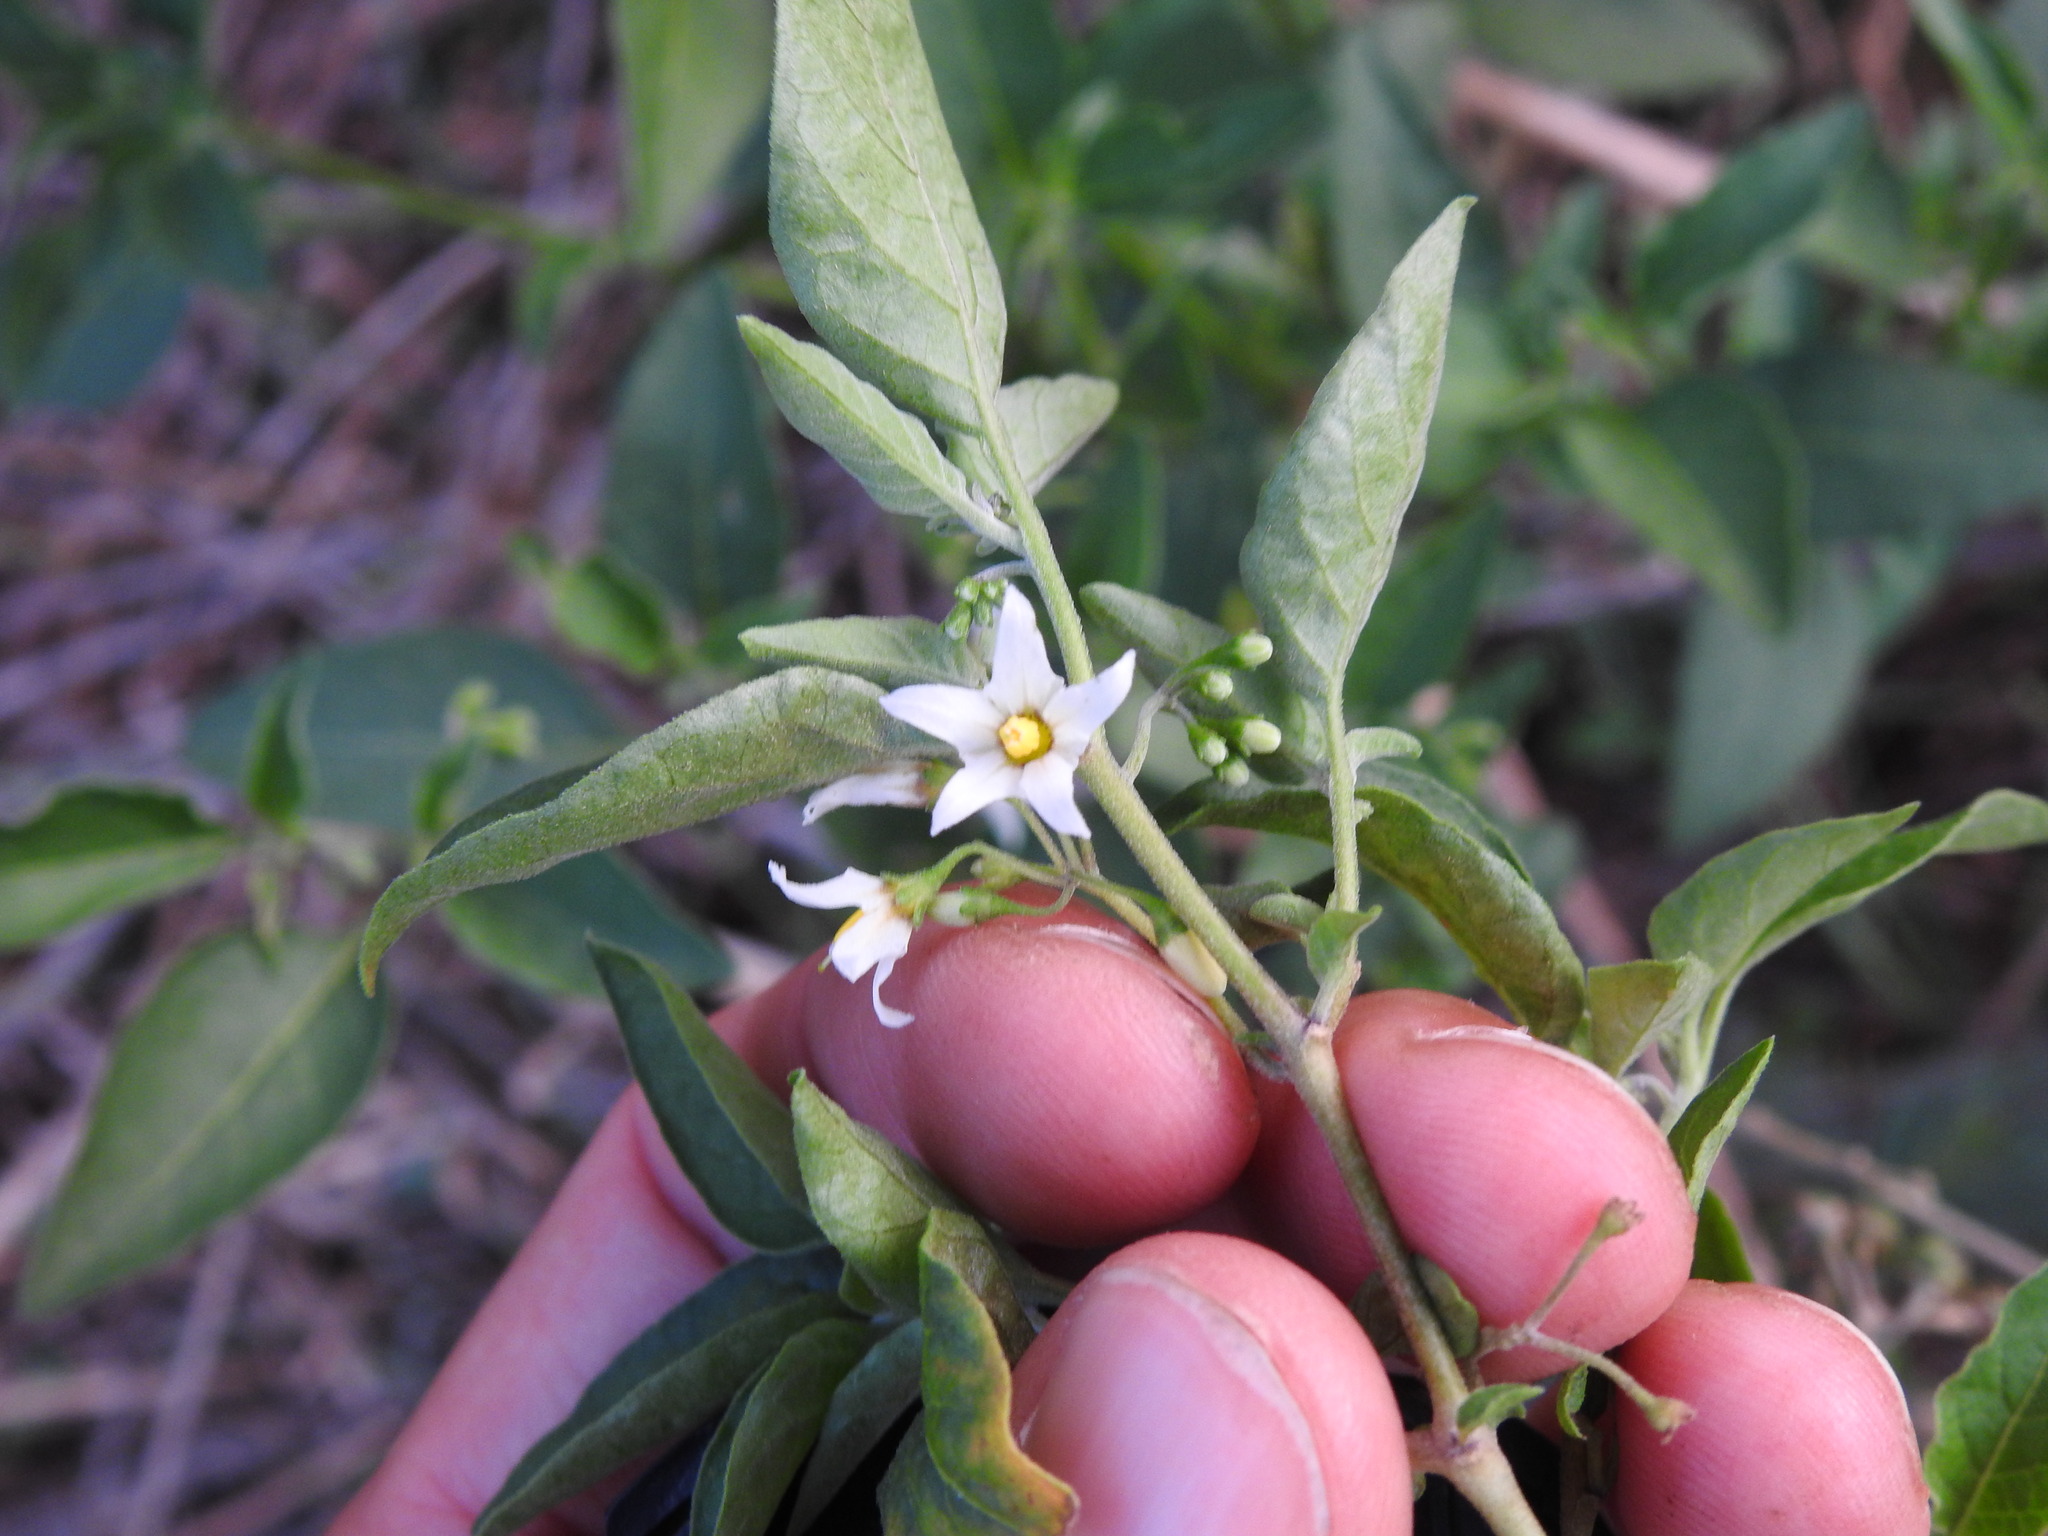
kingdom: Plantae
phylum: Tracheophyta
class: Magnoliopsida
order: Solanales
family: Solanaceae
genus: Solanum
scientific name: Solanum chenopodioides
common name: Tall nightshade
